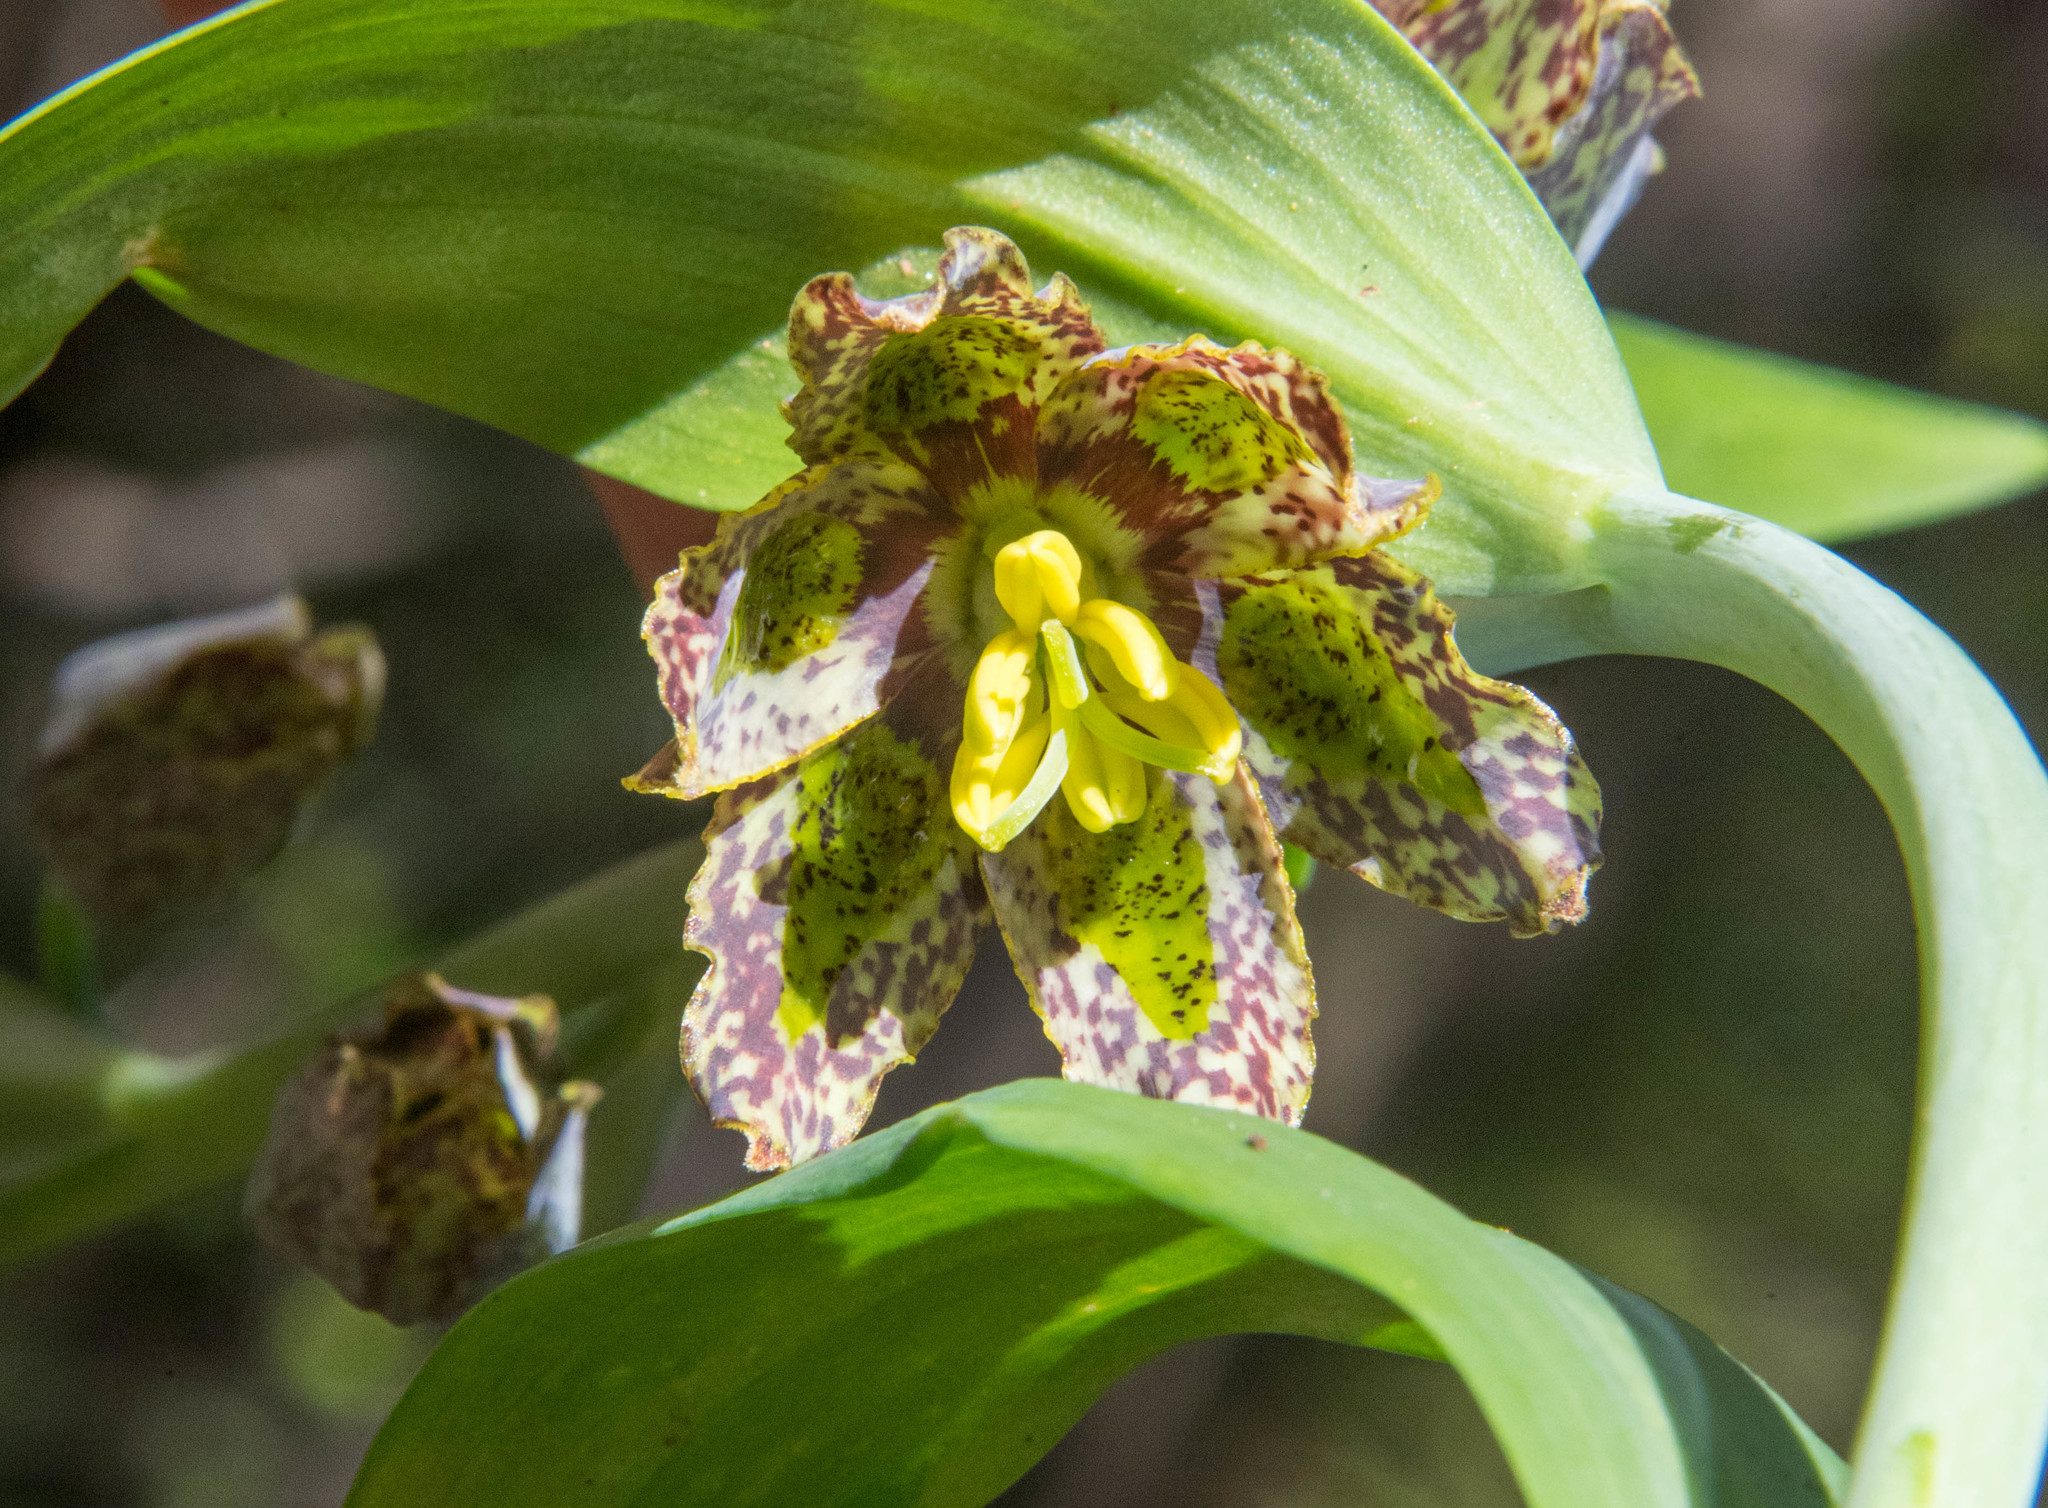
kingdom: Plantae
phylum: Tracheophyta
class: Liliopsida
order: Liliales
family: Liliaceae
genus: Fritillaria
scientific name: Fritillaria affinis
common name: Ojai fritillary
